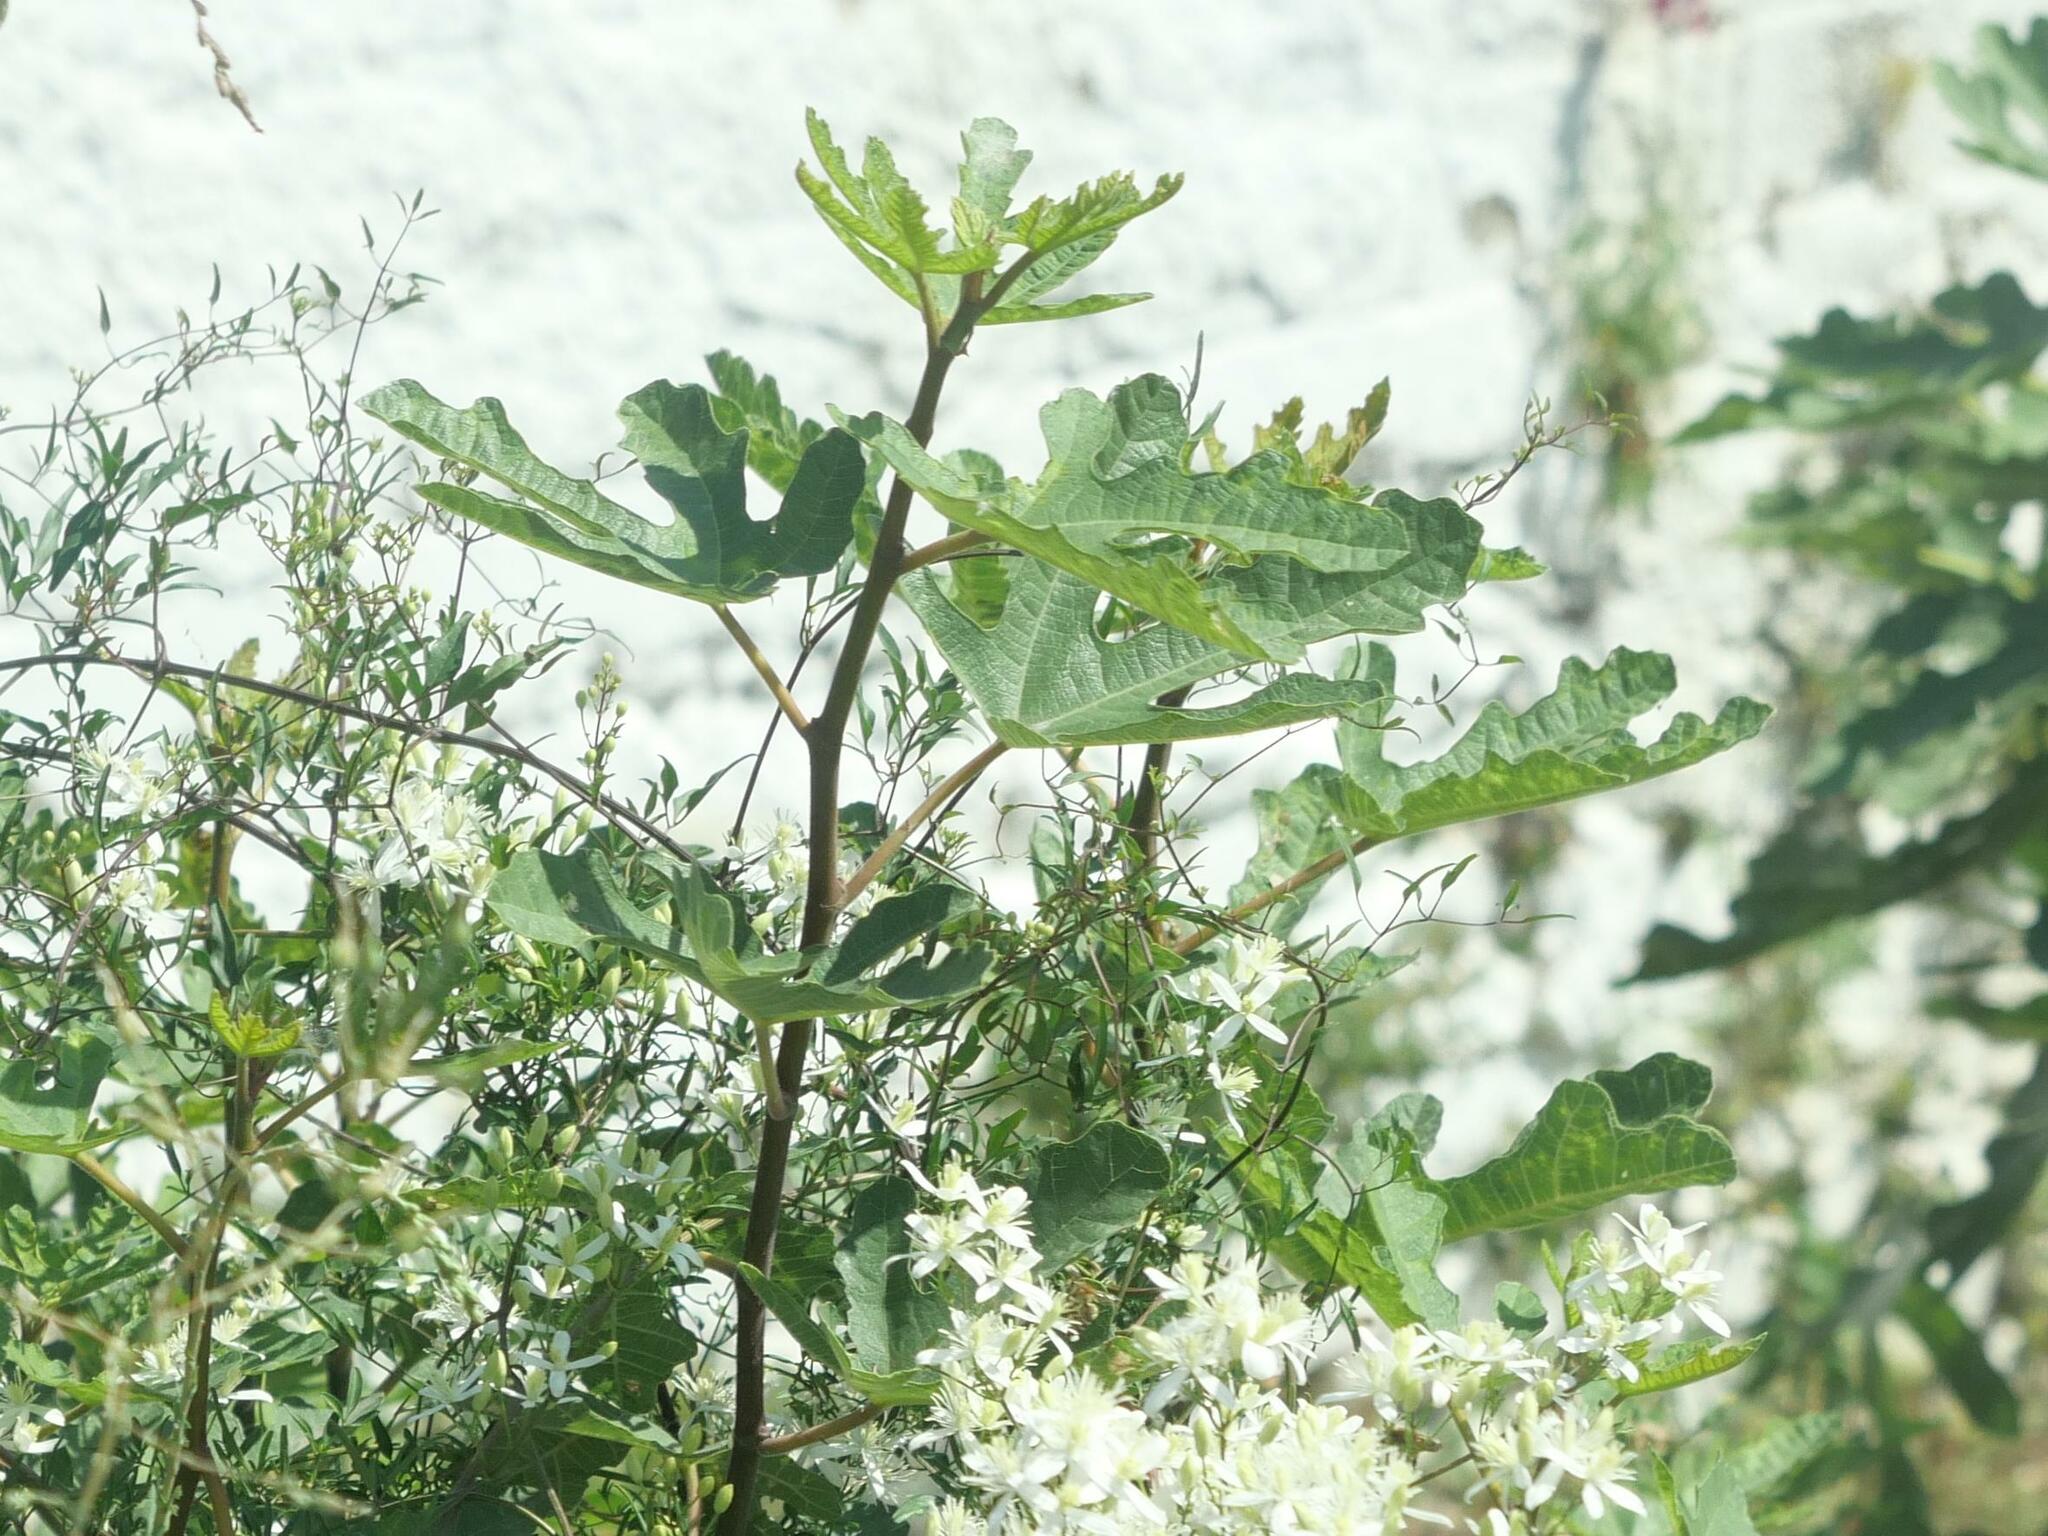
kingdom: Plantae
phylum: Tracheophyta
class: Magnoliopsida
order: Rosales
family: Moraceae
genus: Ficus
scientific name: Ficus carica
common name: Fig
